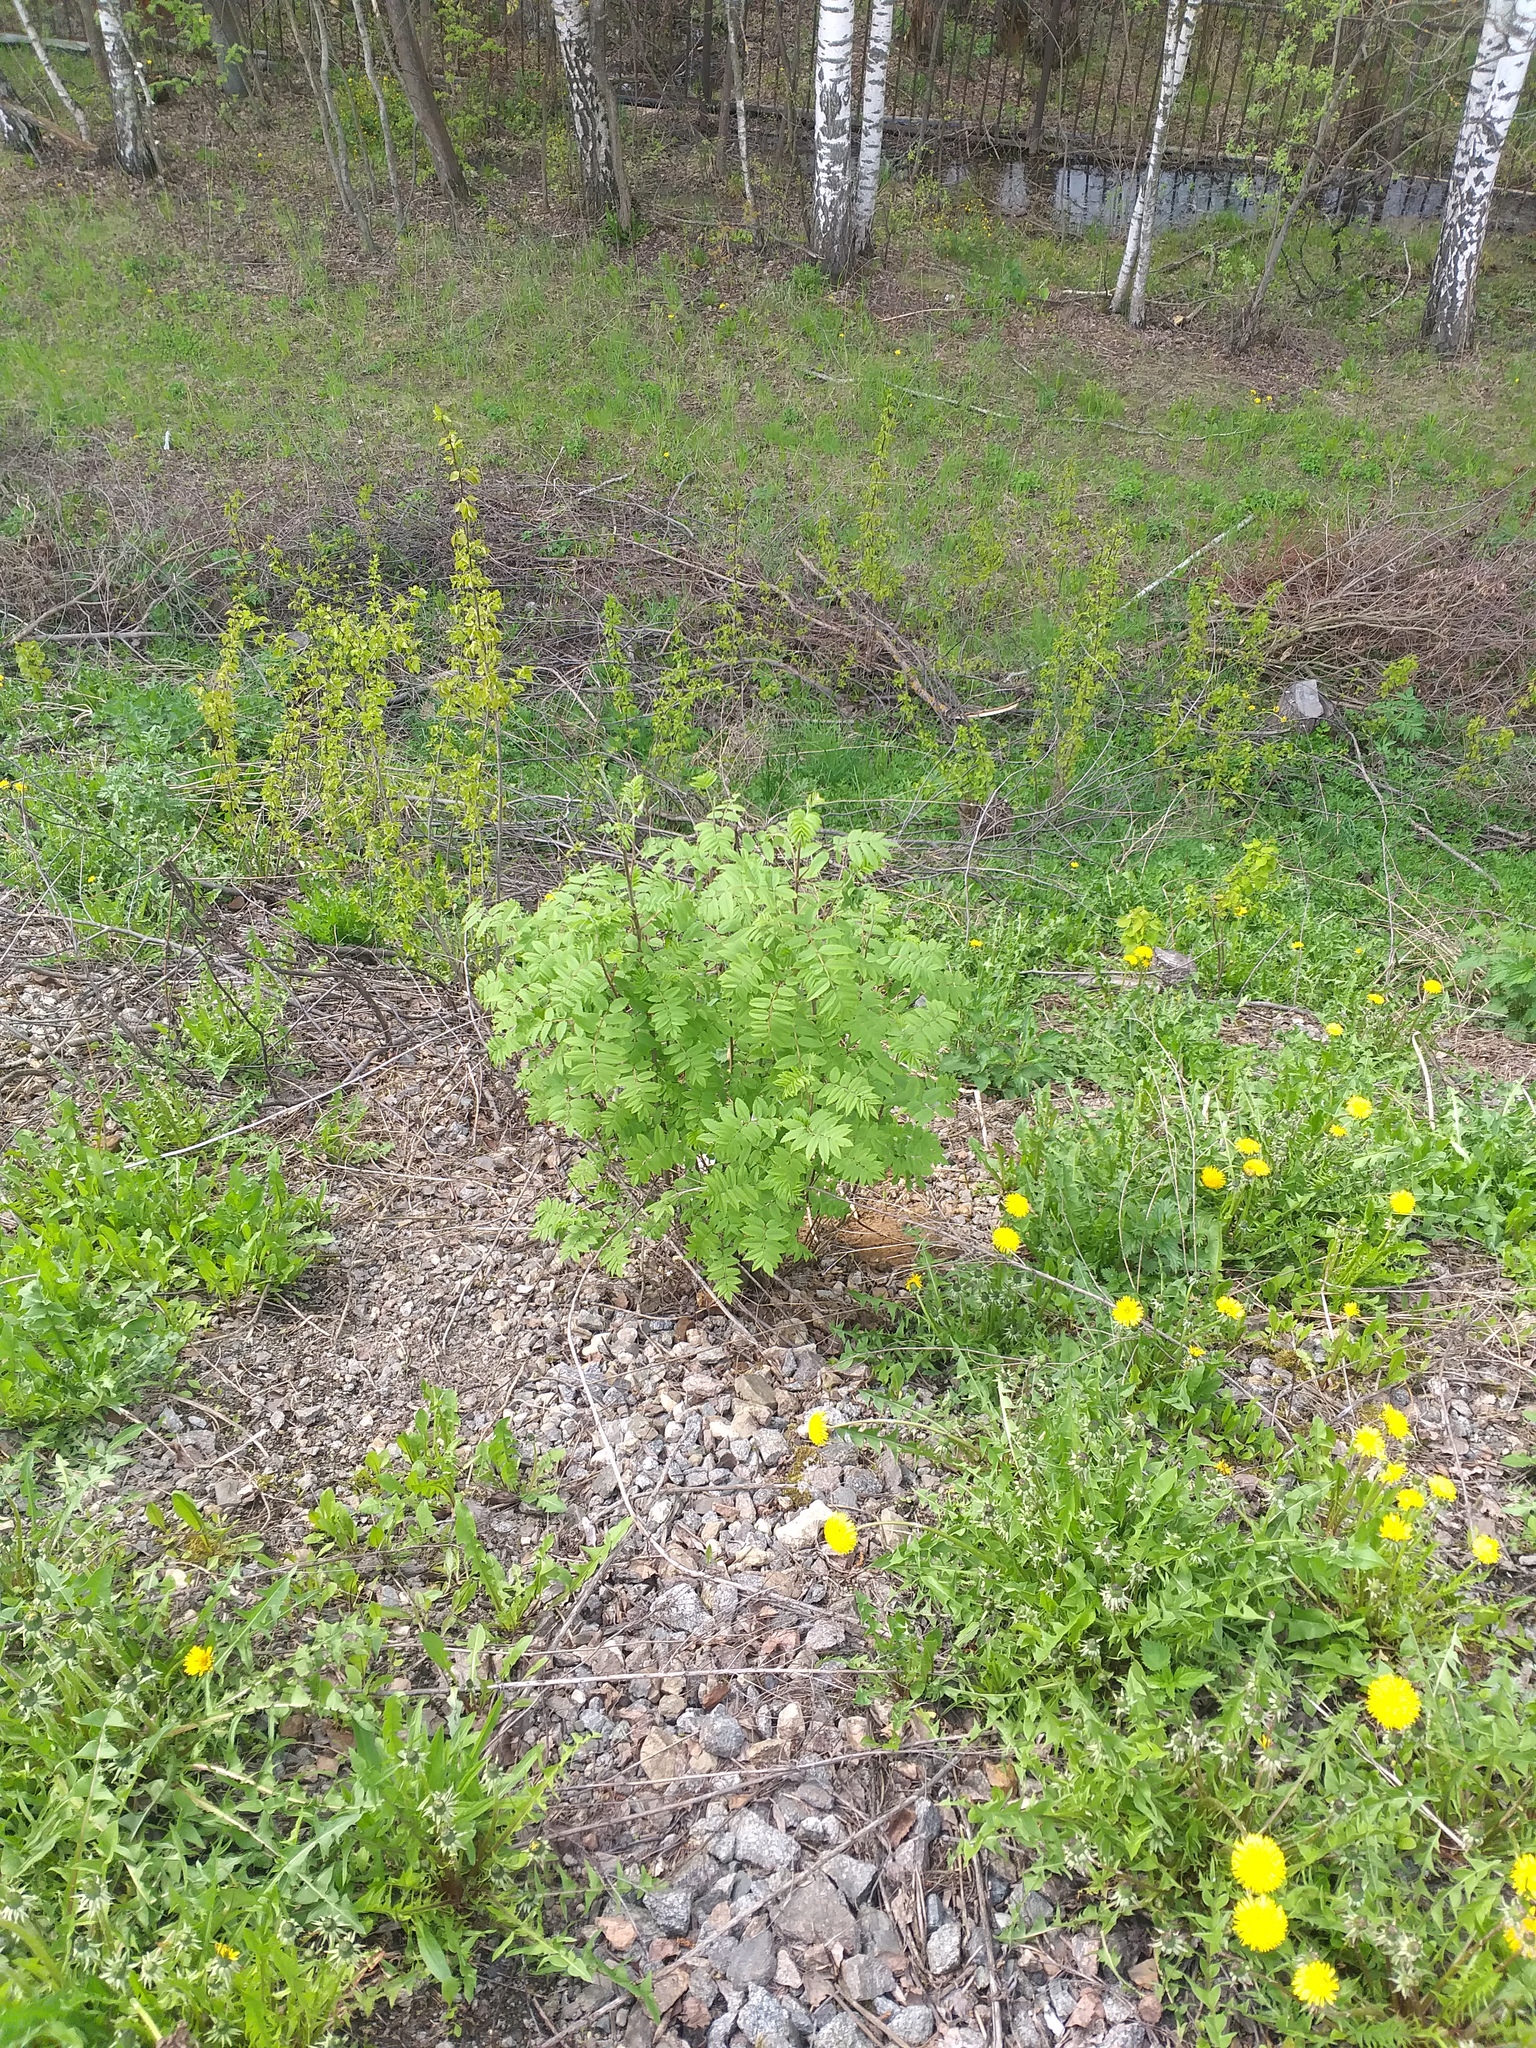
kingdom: Plantae
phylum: Tracheophyta
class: Magnoliopsida
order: Rosales
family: Rosaceae
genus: Sorbus
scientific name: Sorbus aucuparia
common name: Rowan
